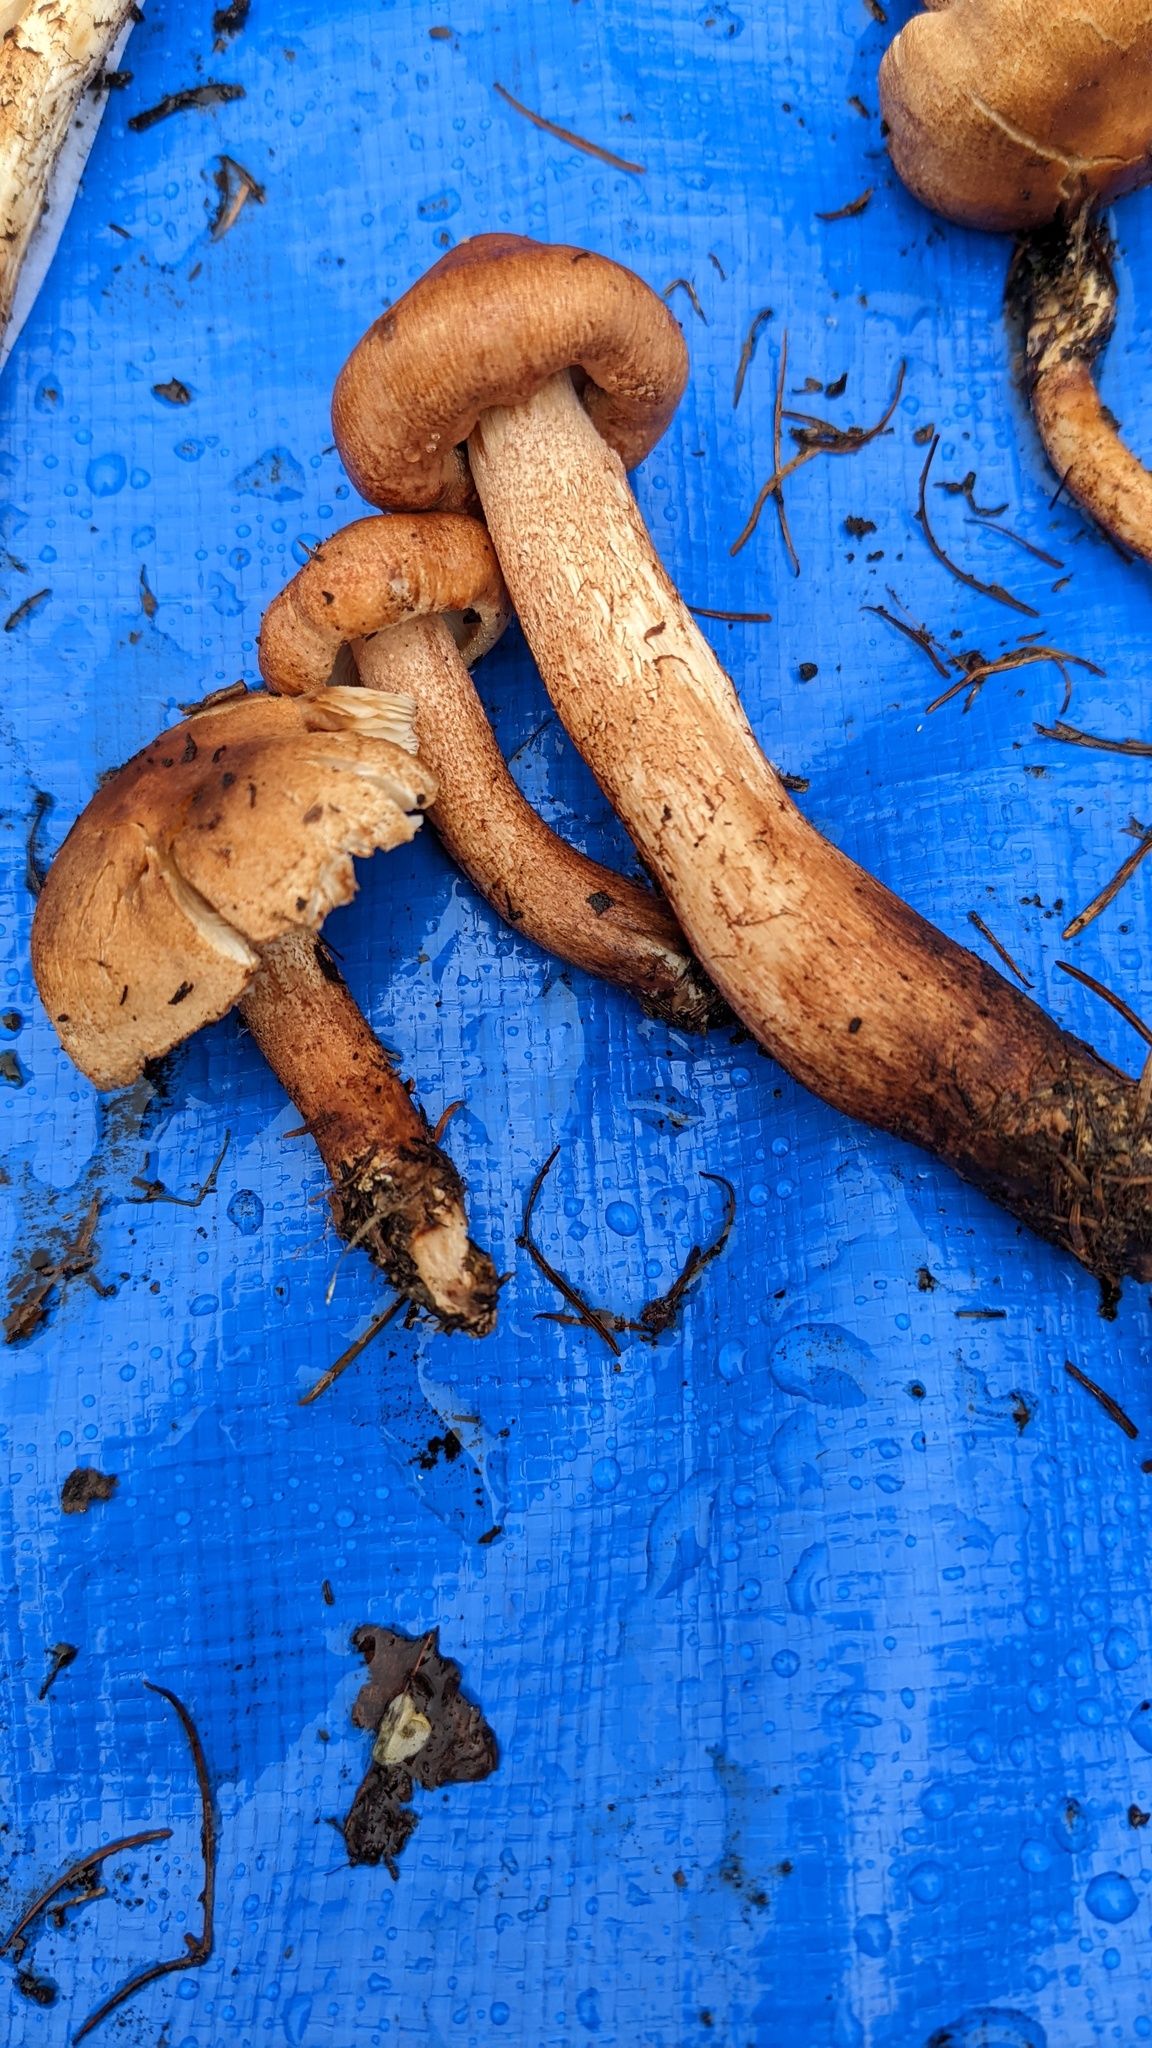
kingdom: Fungi
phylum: Basidiomycota
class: Agaricomycetes
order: Agaricales
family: Tricholomataceae
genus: Tricholoma
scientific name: Tricholoma psammopus
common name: Larch knight
